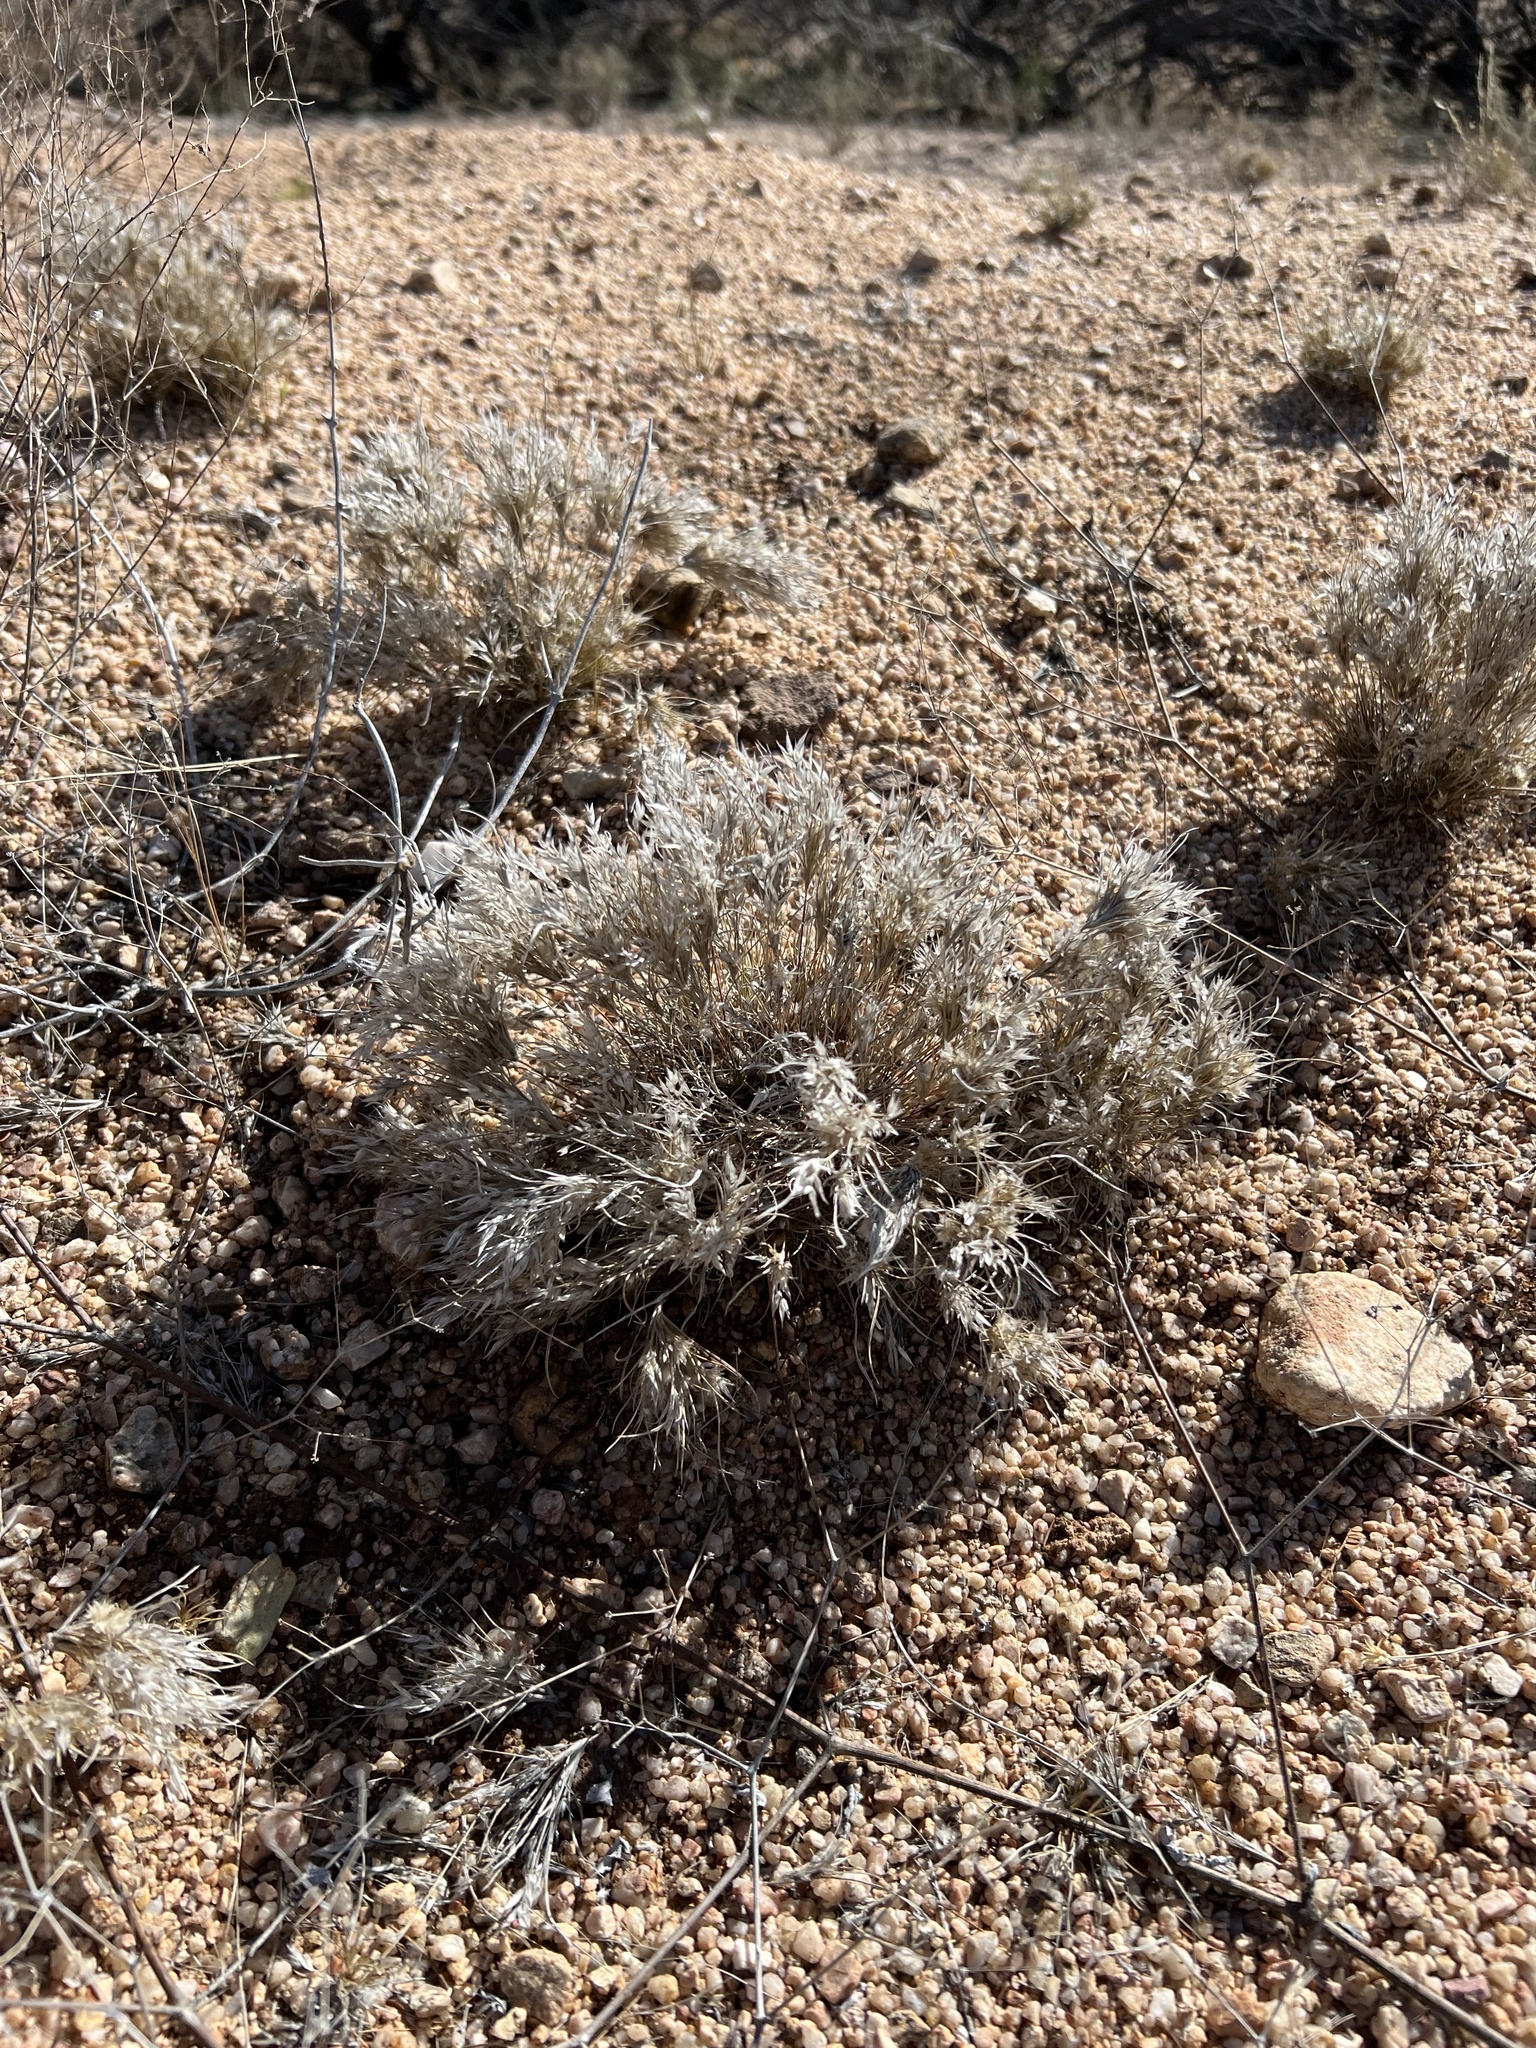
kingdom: Plantae
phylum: Tracheophyta
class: Liliopsida
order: Poales
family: Poaceae
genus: Dasyochloa
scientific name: Dasyochloa pulchella
